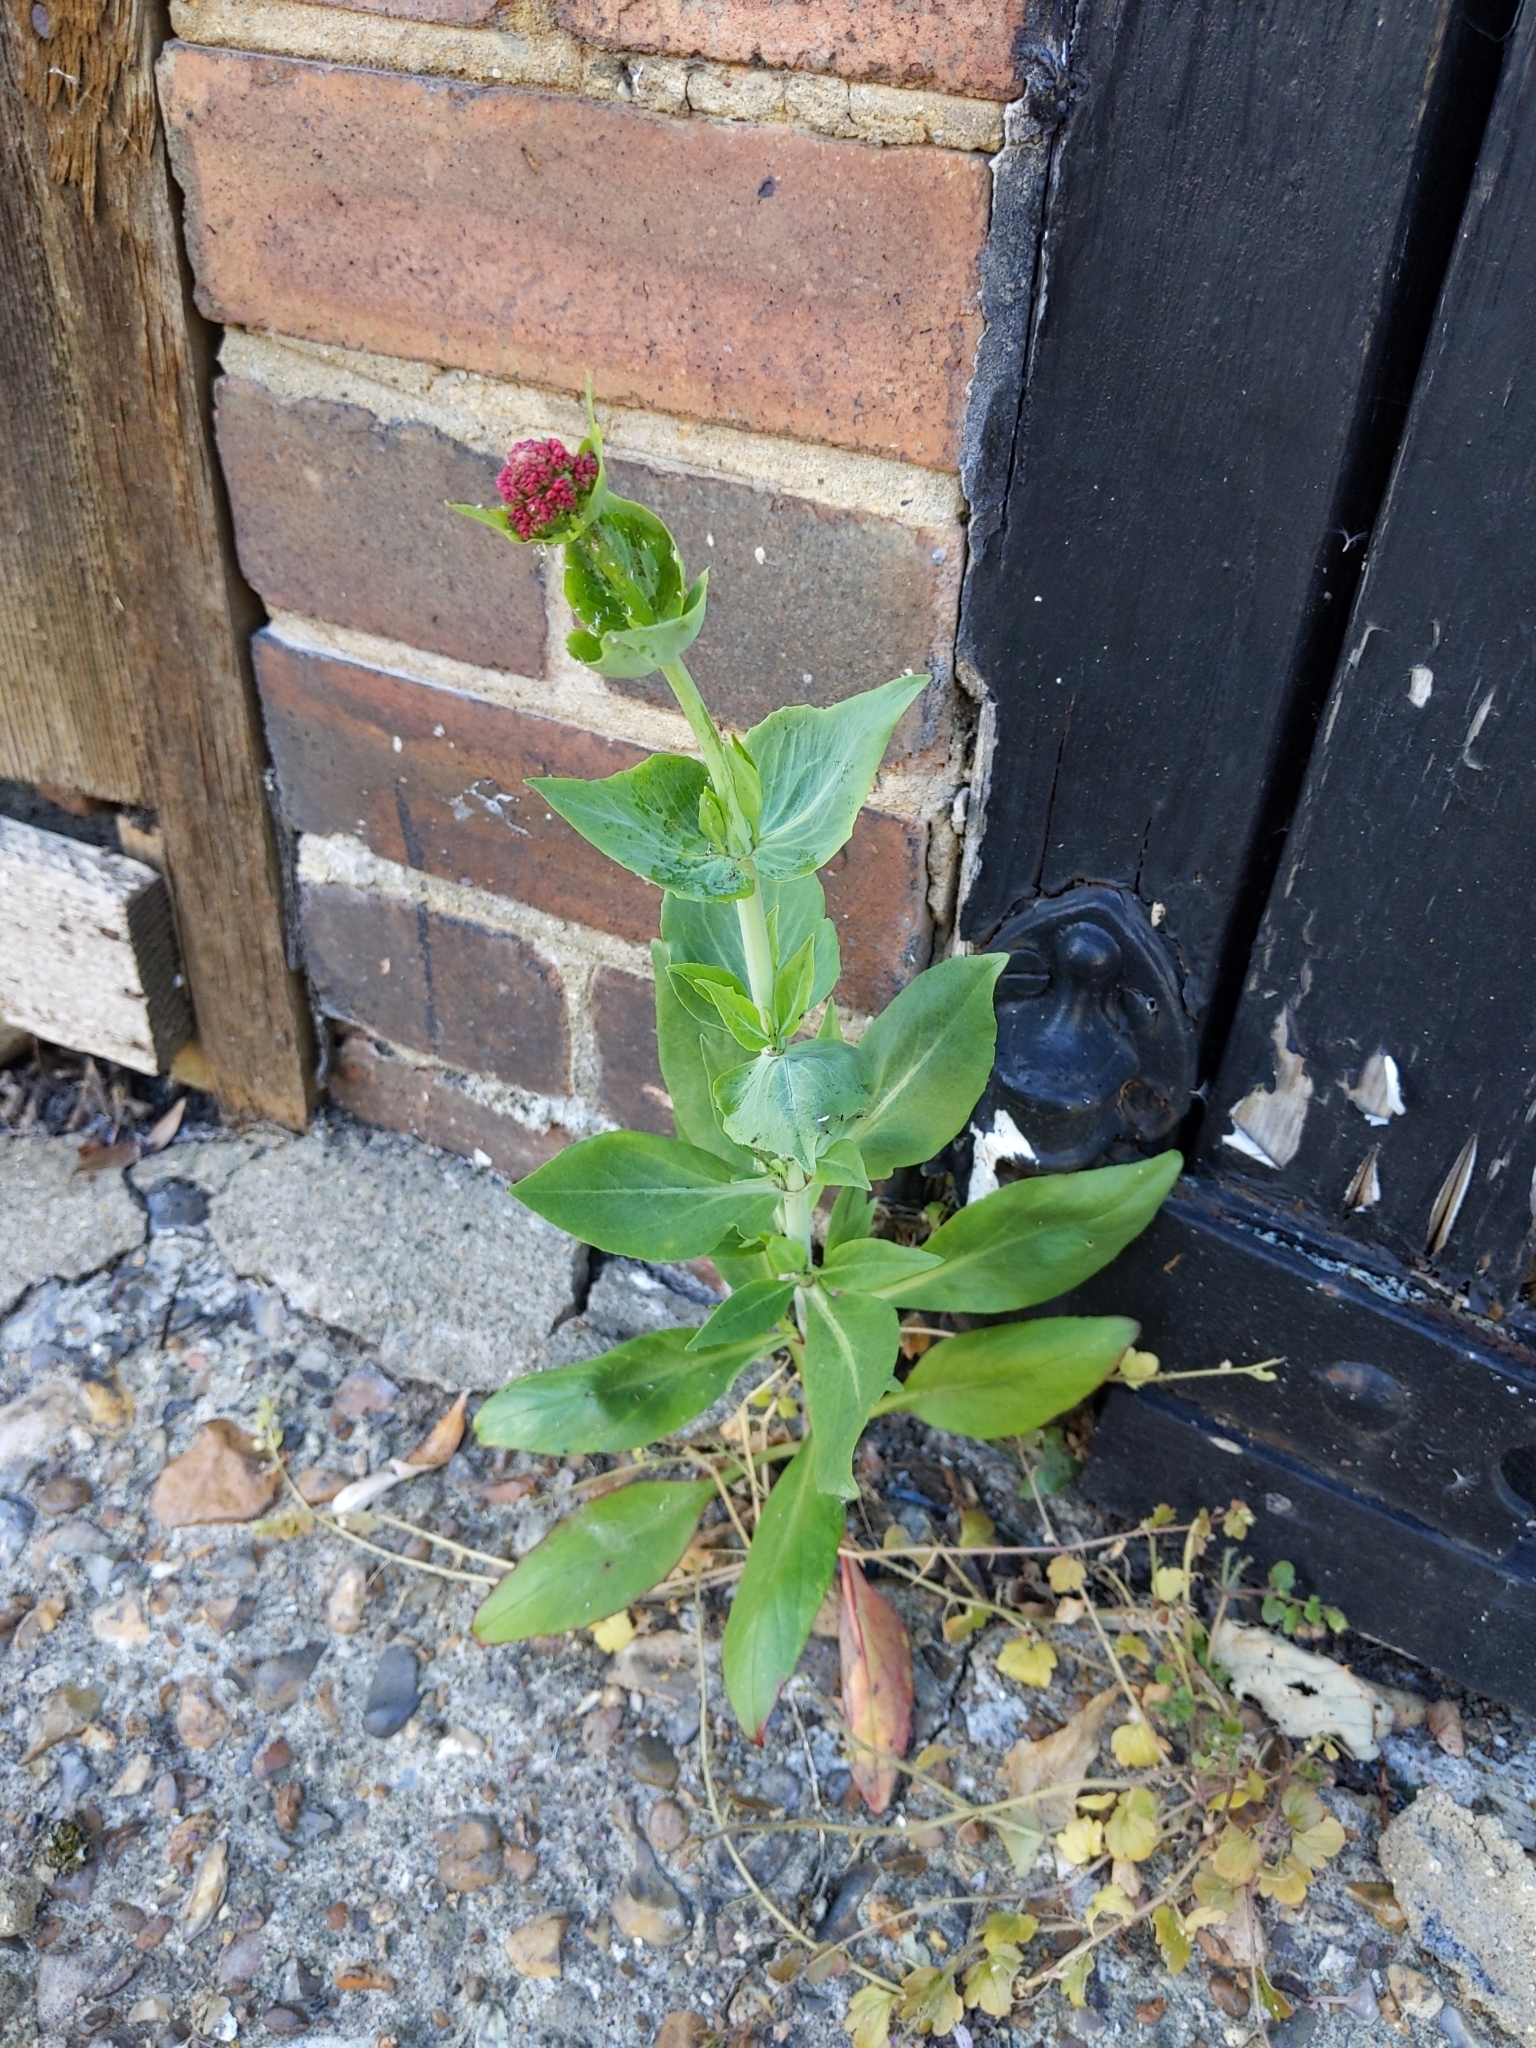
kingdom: Plantae
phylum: Tracheophyta
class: Magnoliopsida
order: Dipsacales
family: Caprifoliaceae
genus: Centranthus
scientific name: Centranthus ruber
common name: Red valerian
